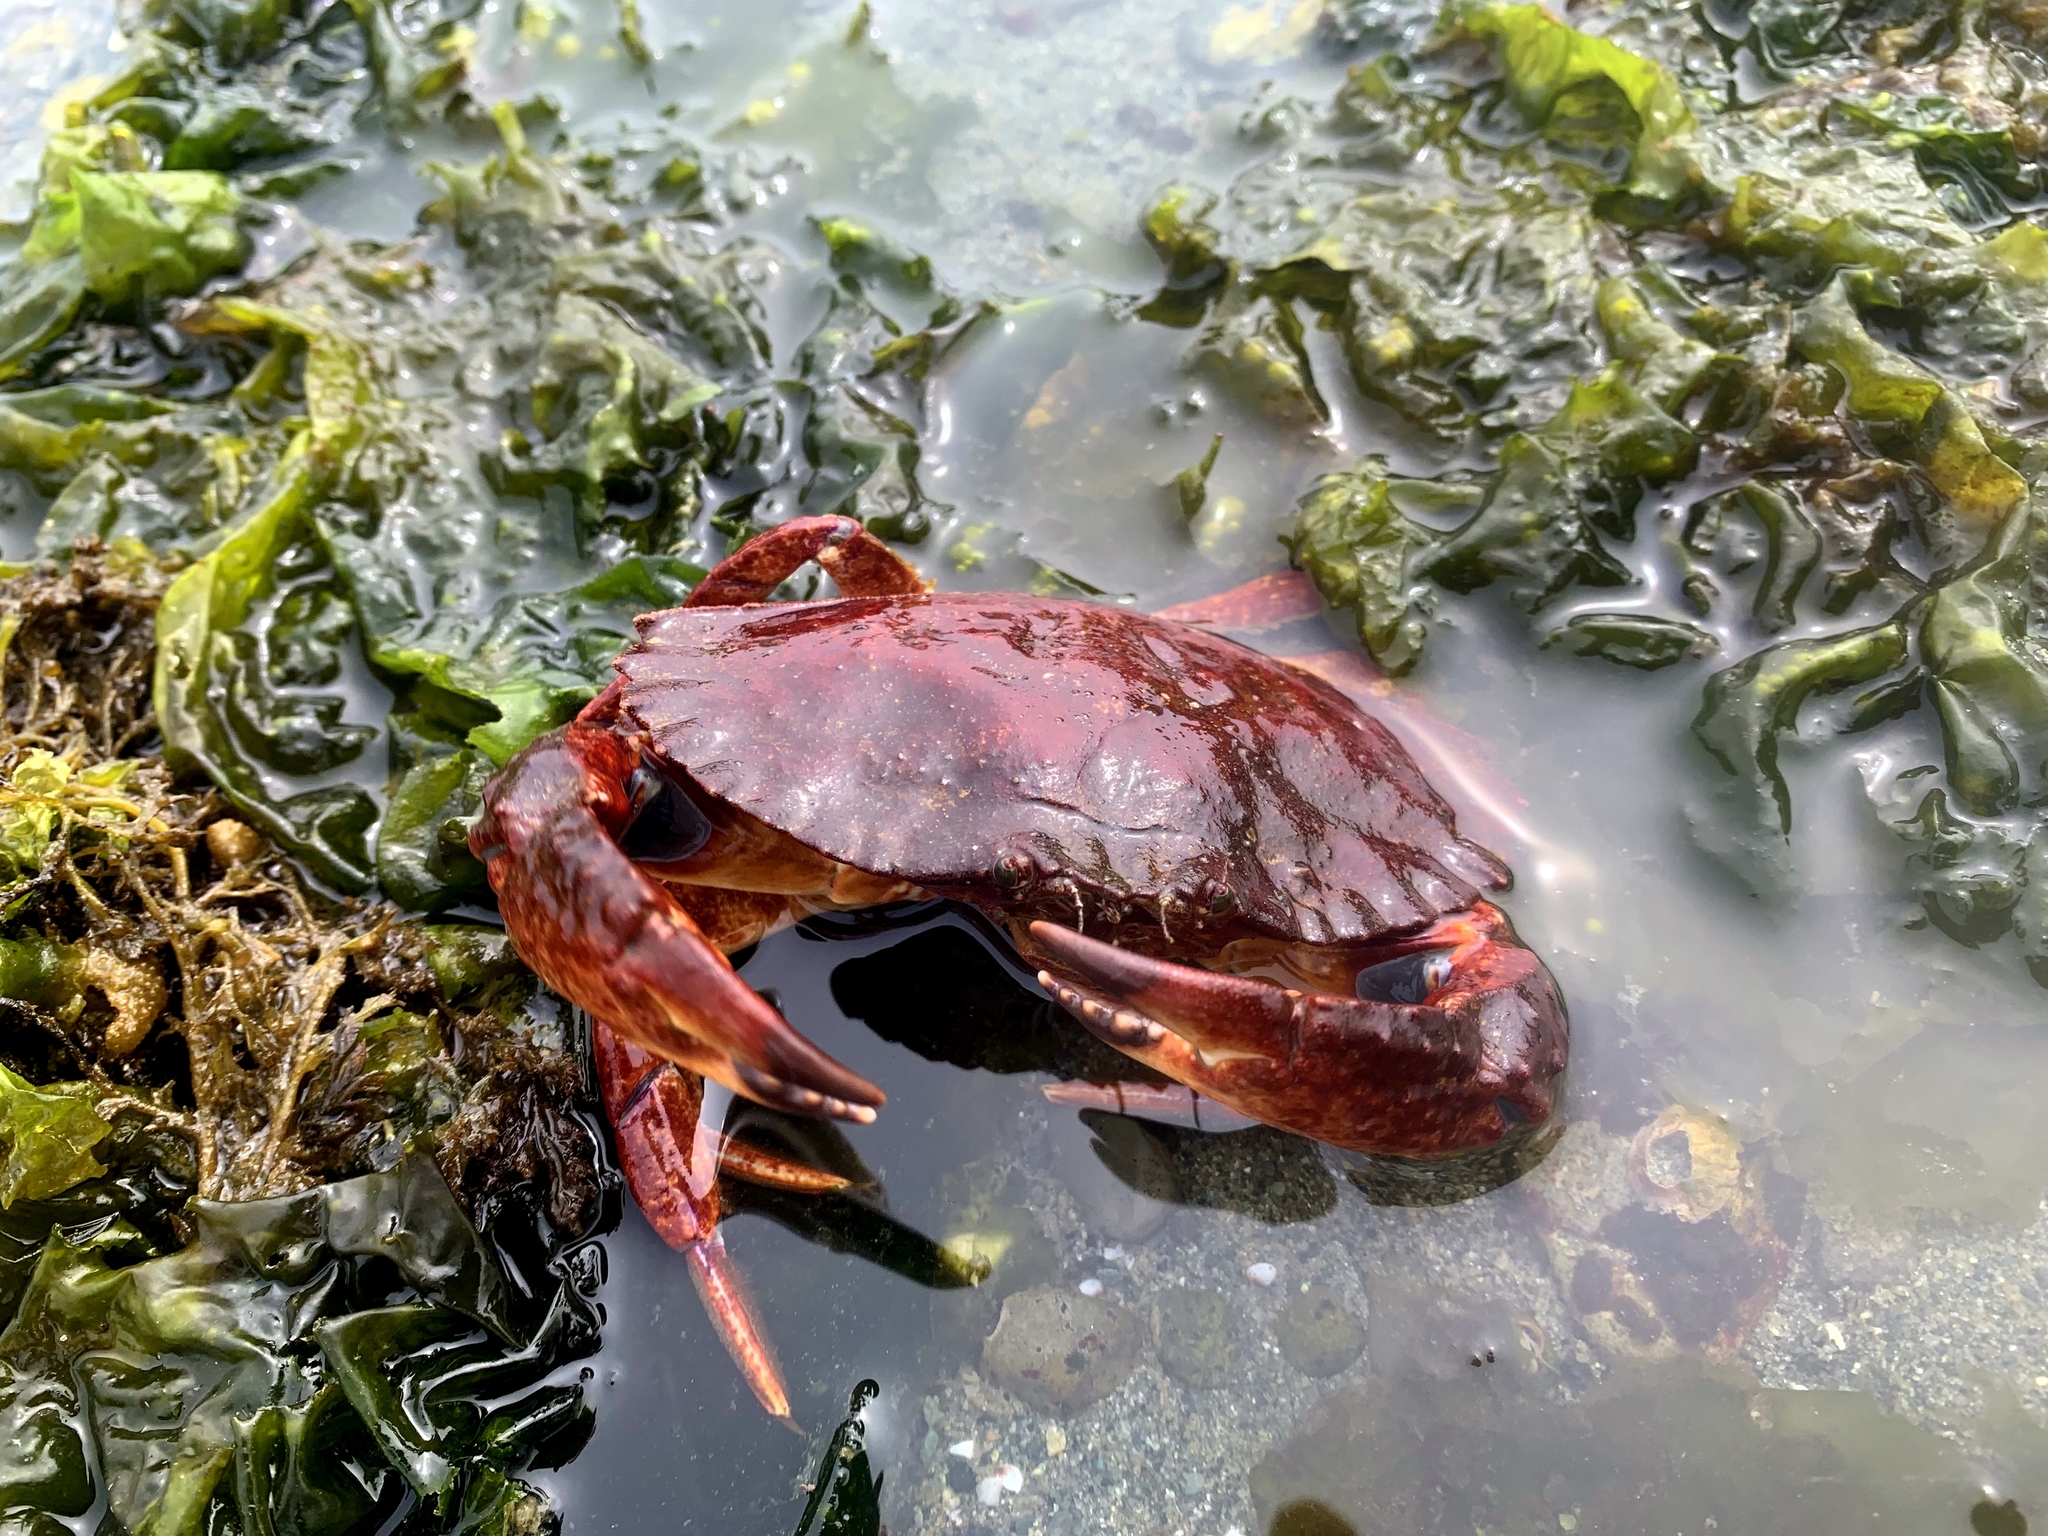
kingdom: Animalia
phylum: Arthropoda
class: Malacostraca
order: Decapoda
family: Cancridae
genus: Cancer
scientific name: Cancer productus
